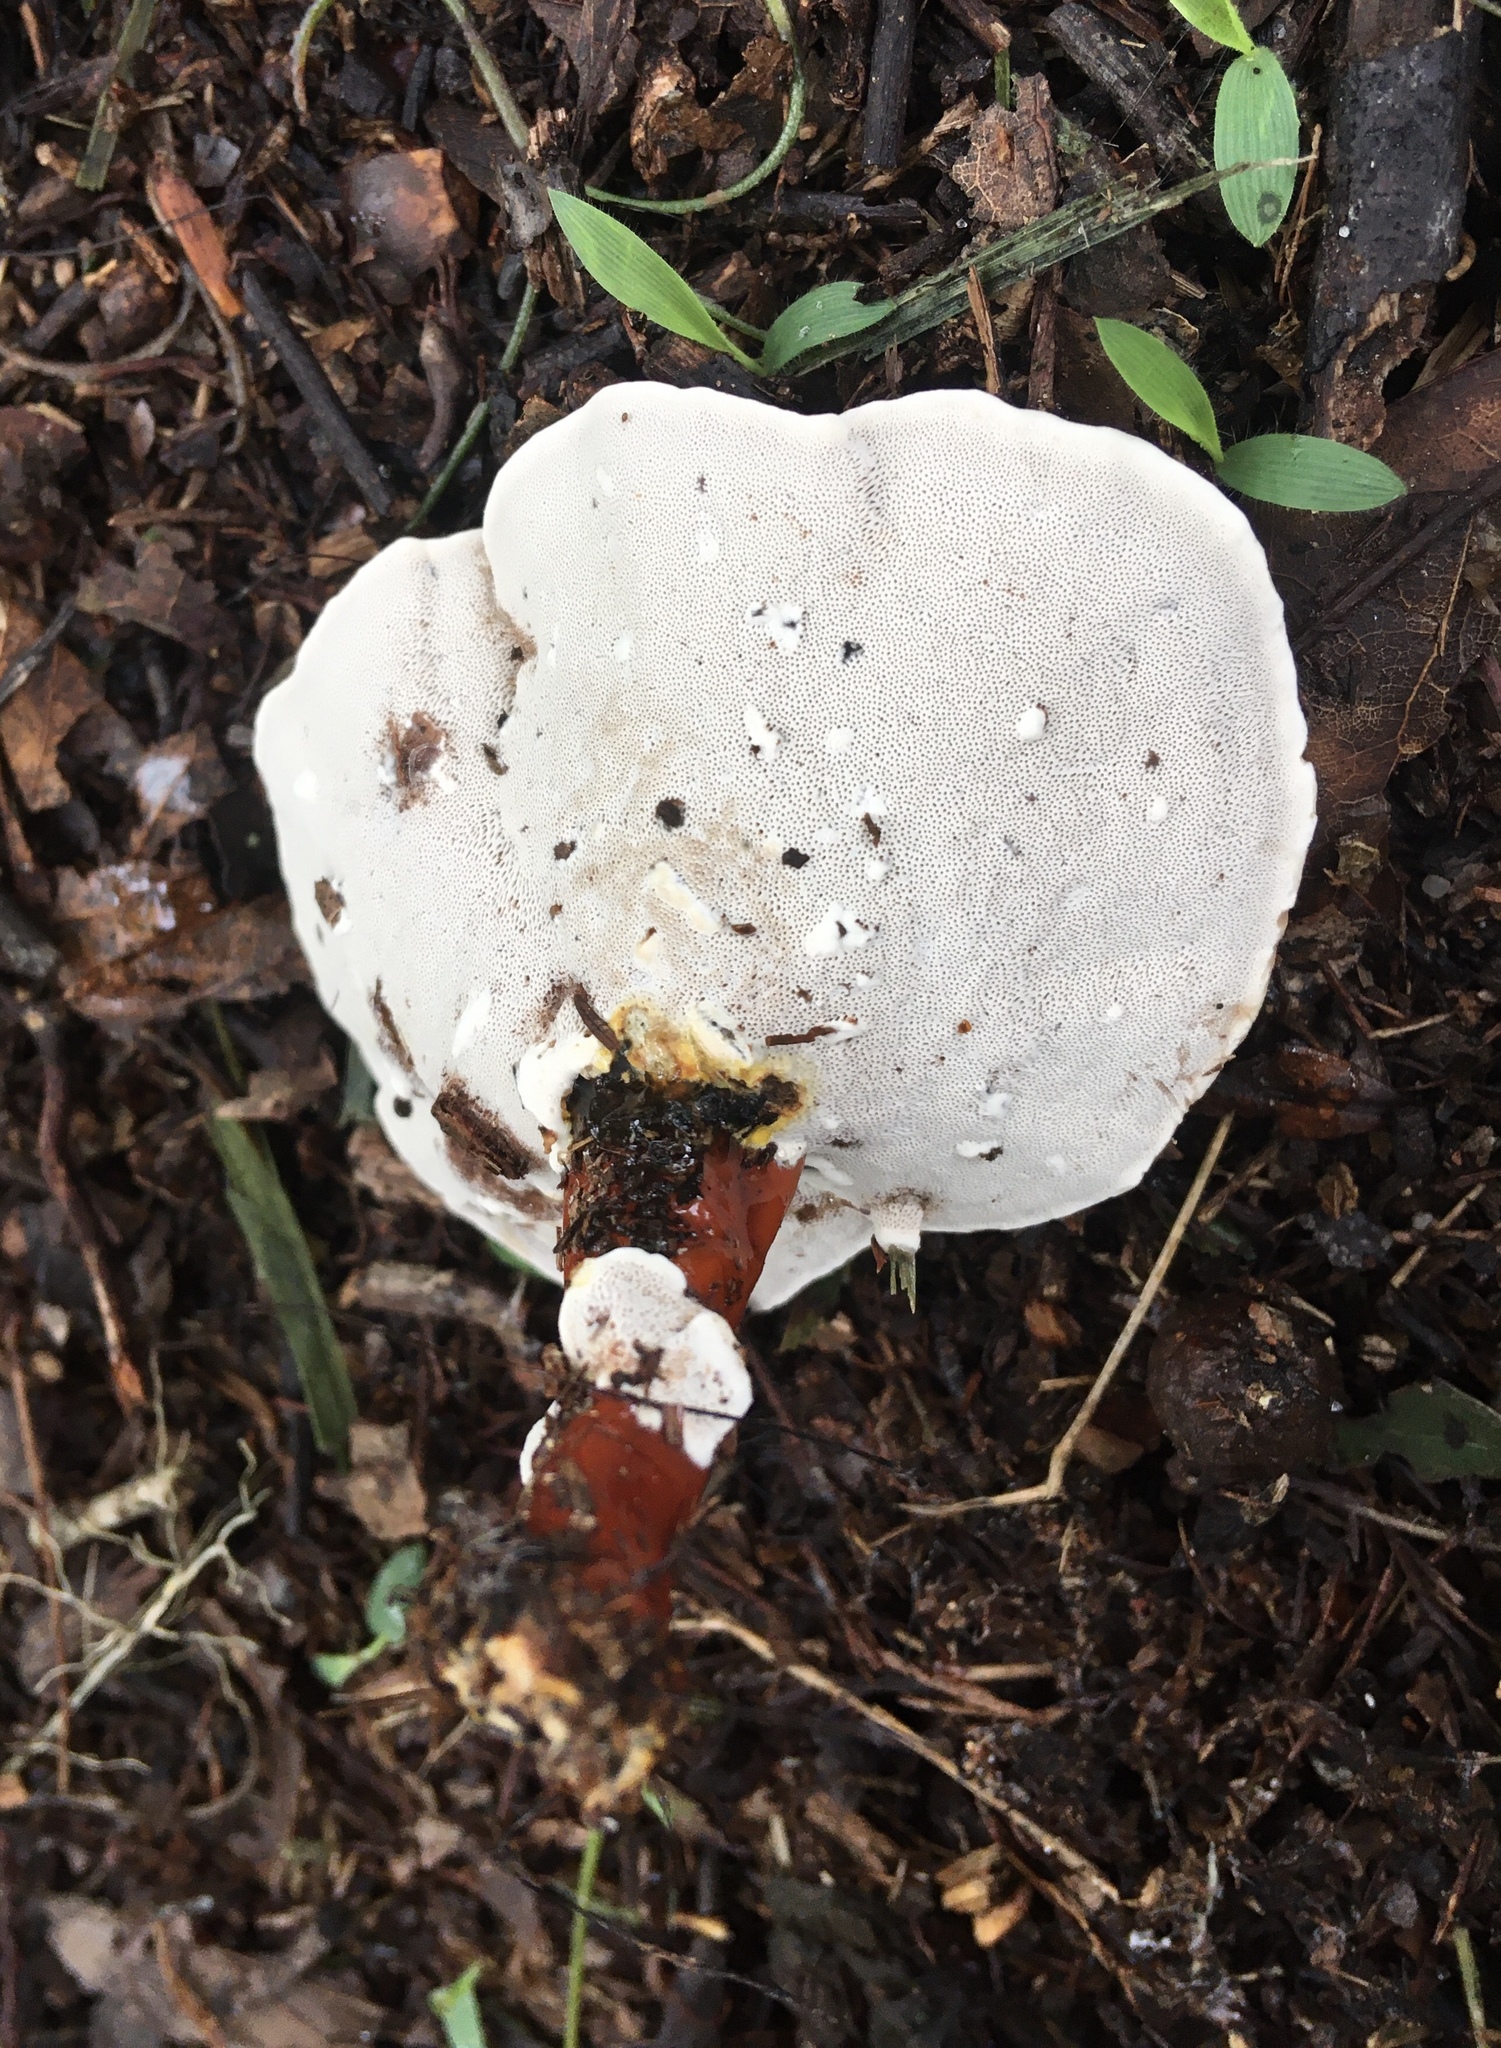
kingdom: Fungi
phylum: Basidiomycota
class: Agaricomycetes
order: Polyporales
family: Polyporaceae
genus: Ganoderma
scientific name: Ganoderma curtisii
